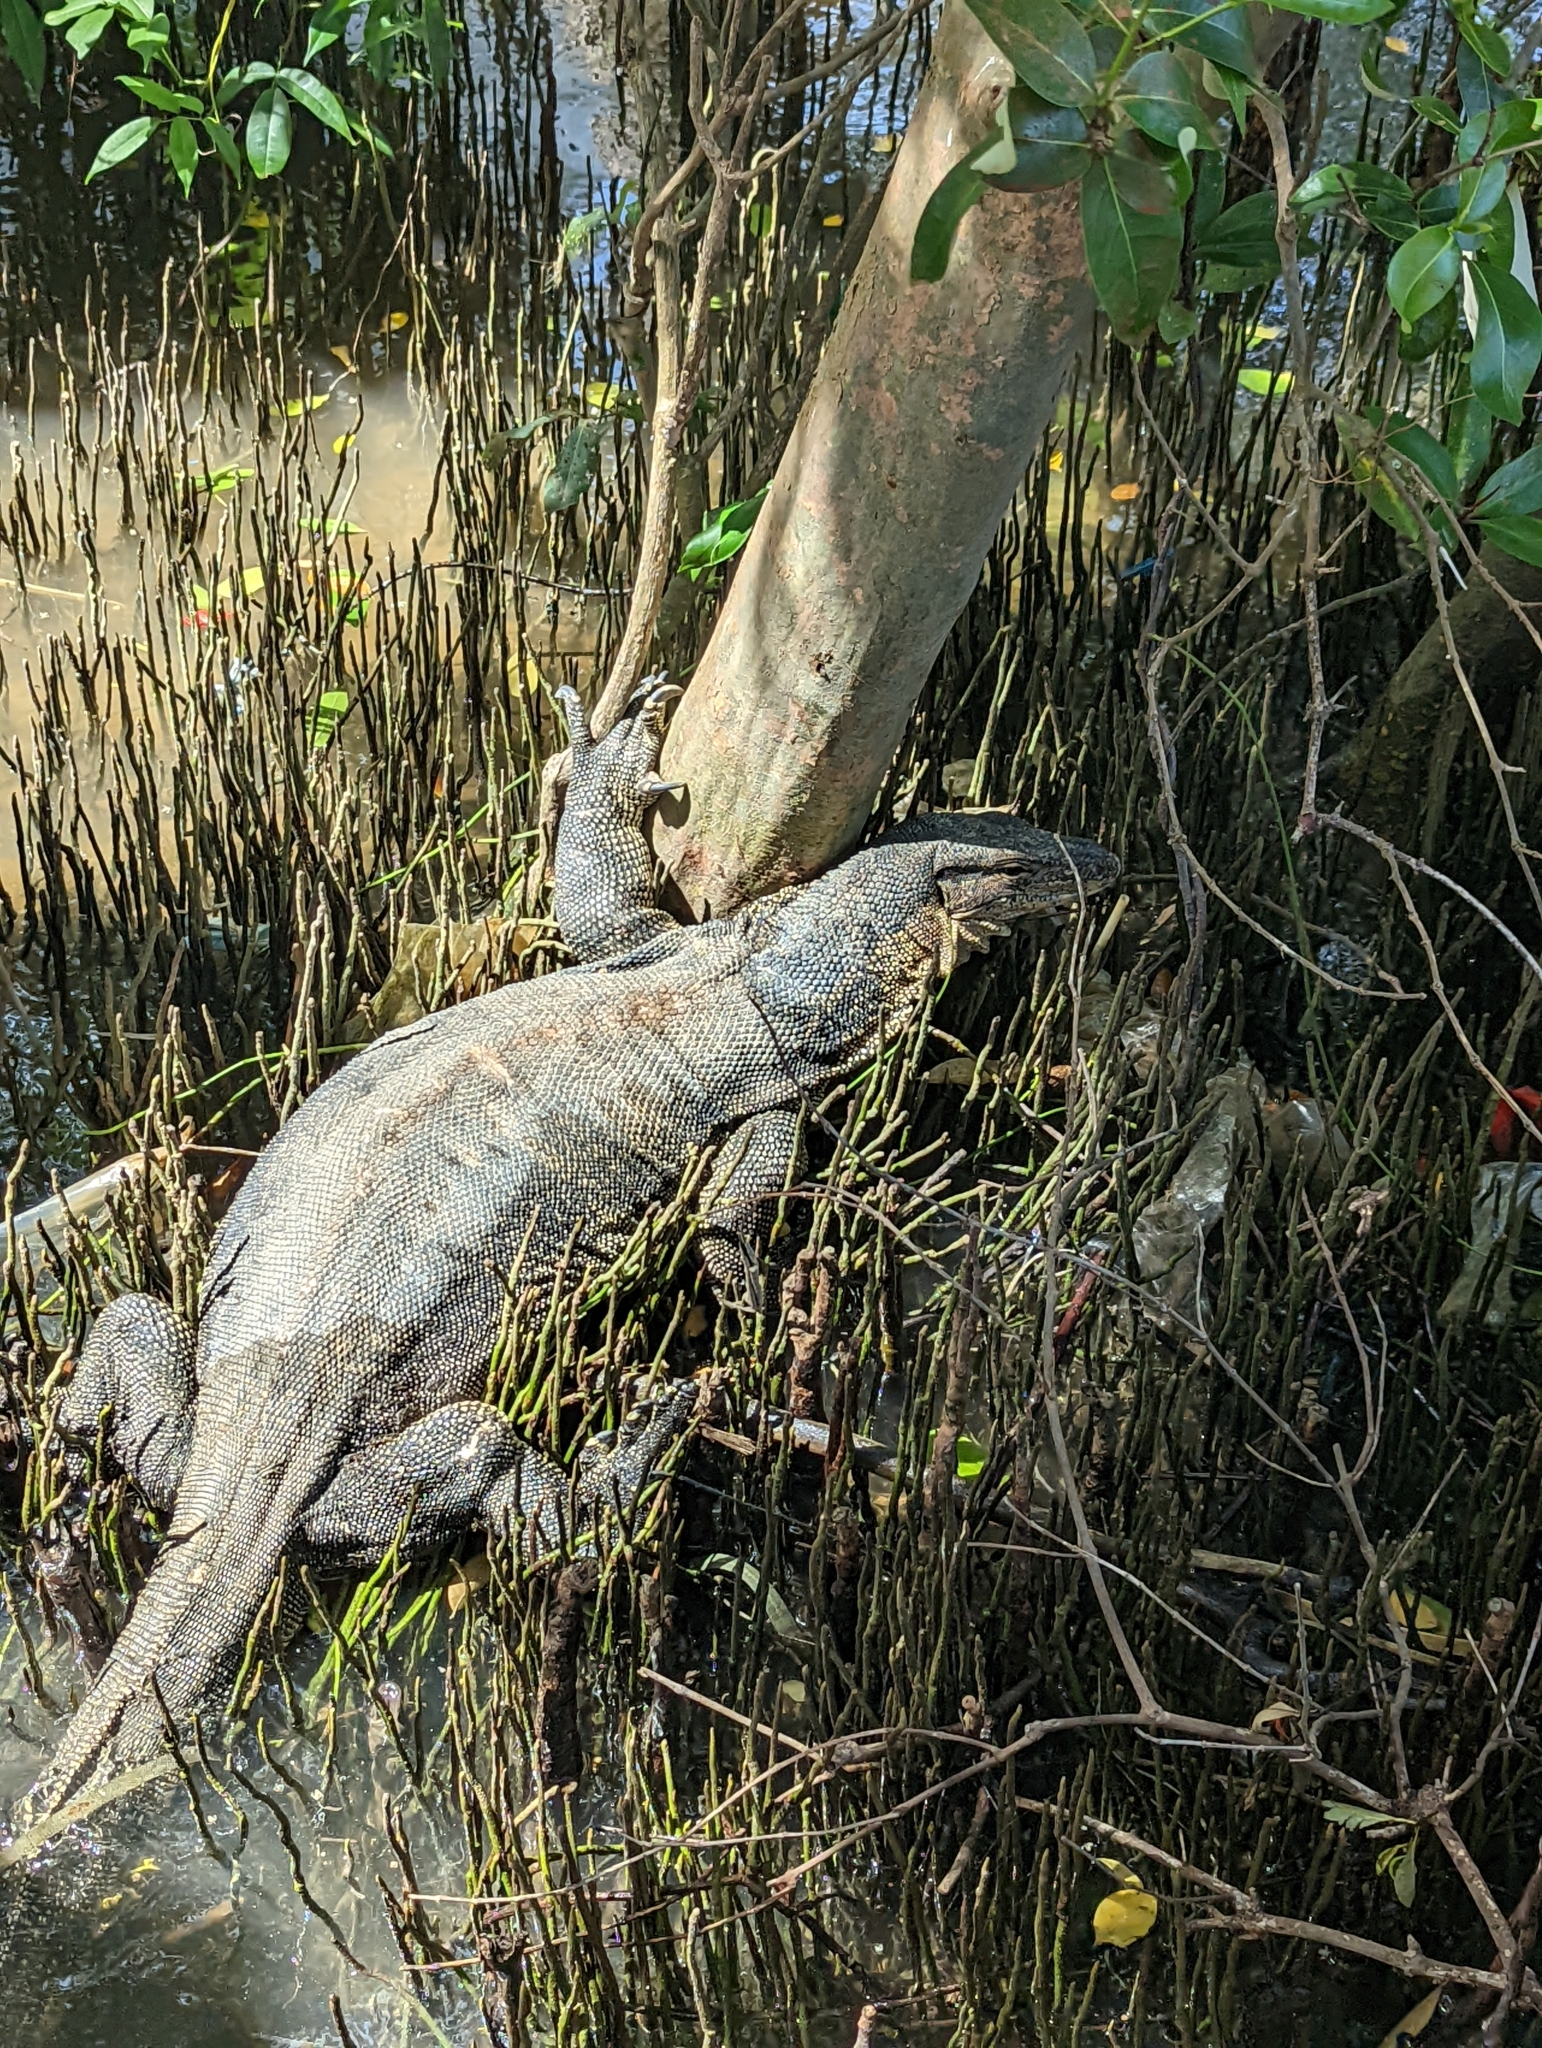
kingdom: Animalia
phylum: Chordata
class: Squamata
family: Varanidae
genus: Varanus
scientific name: Varanus salvator
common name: Common water monitor
